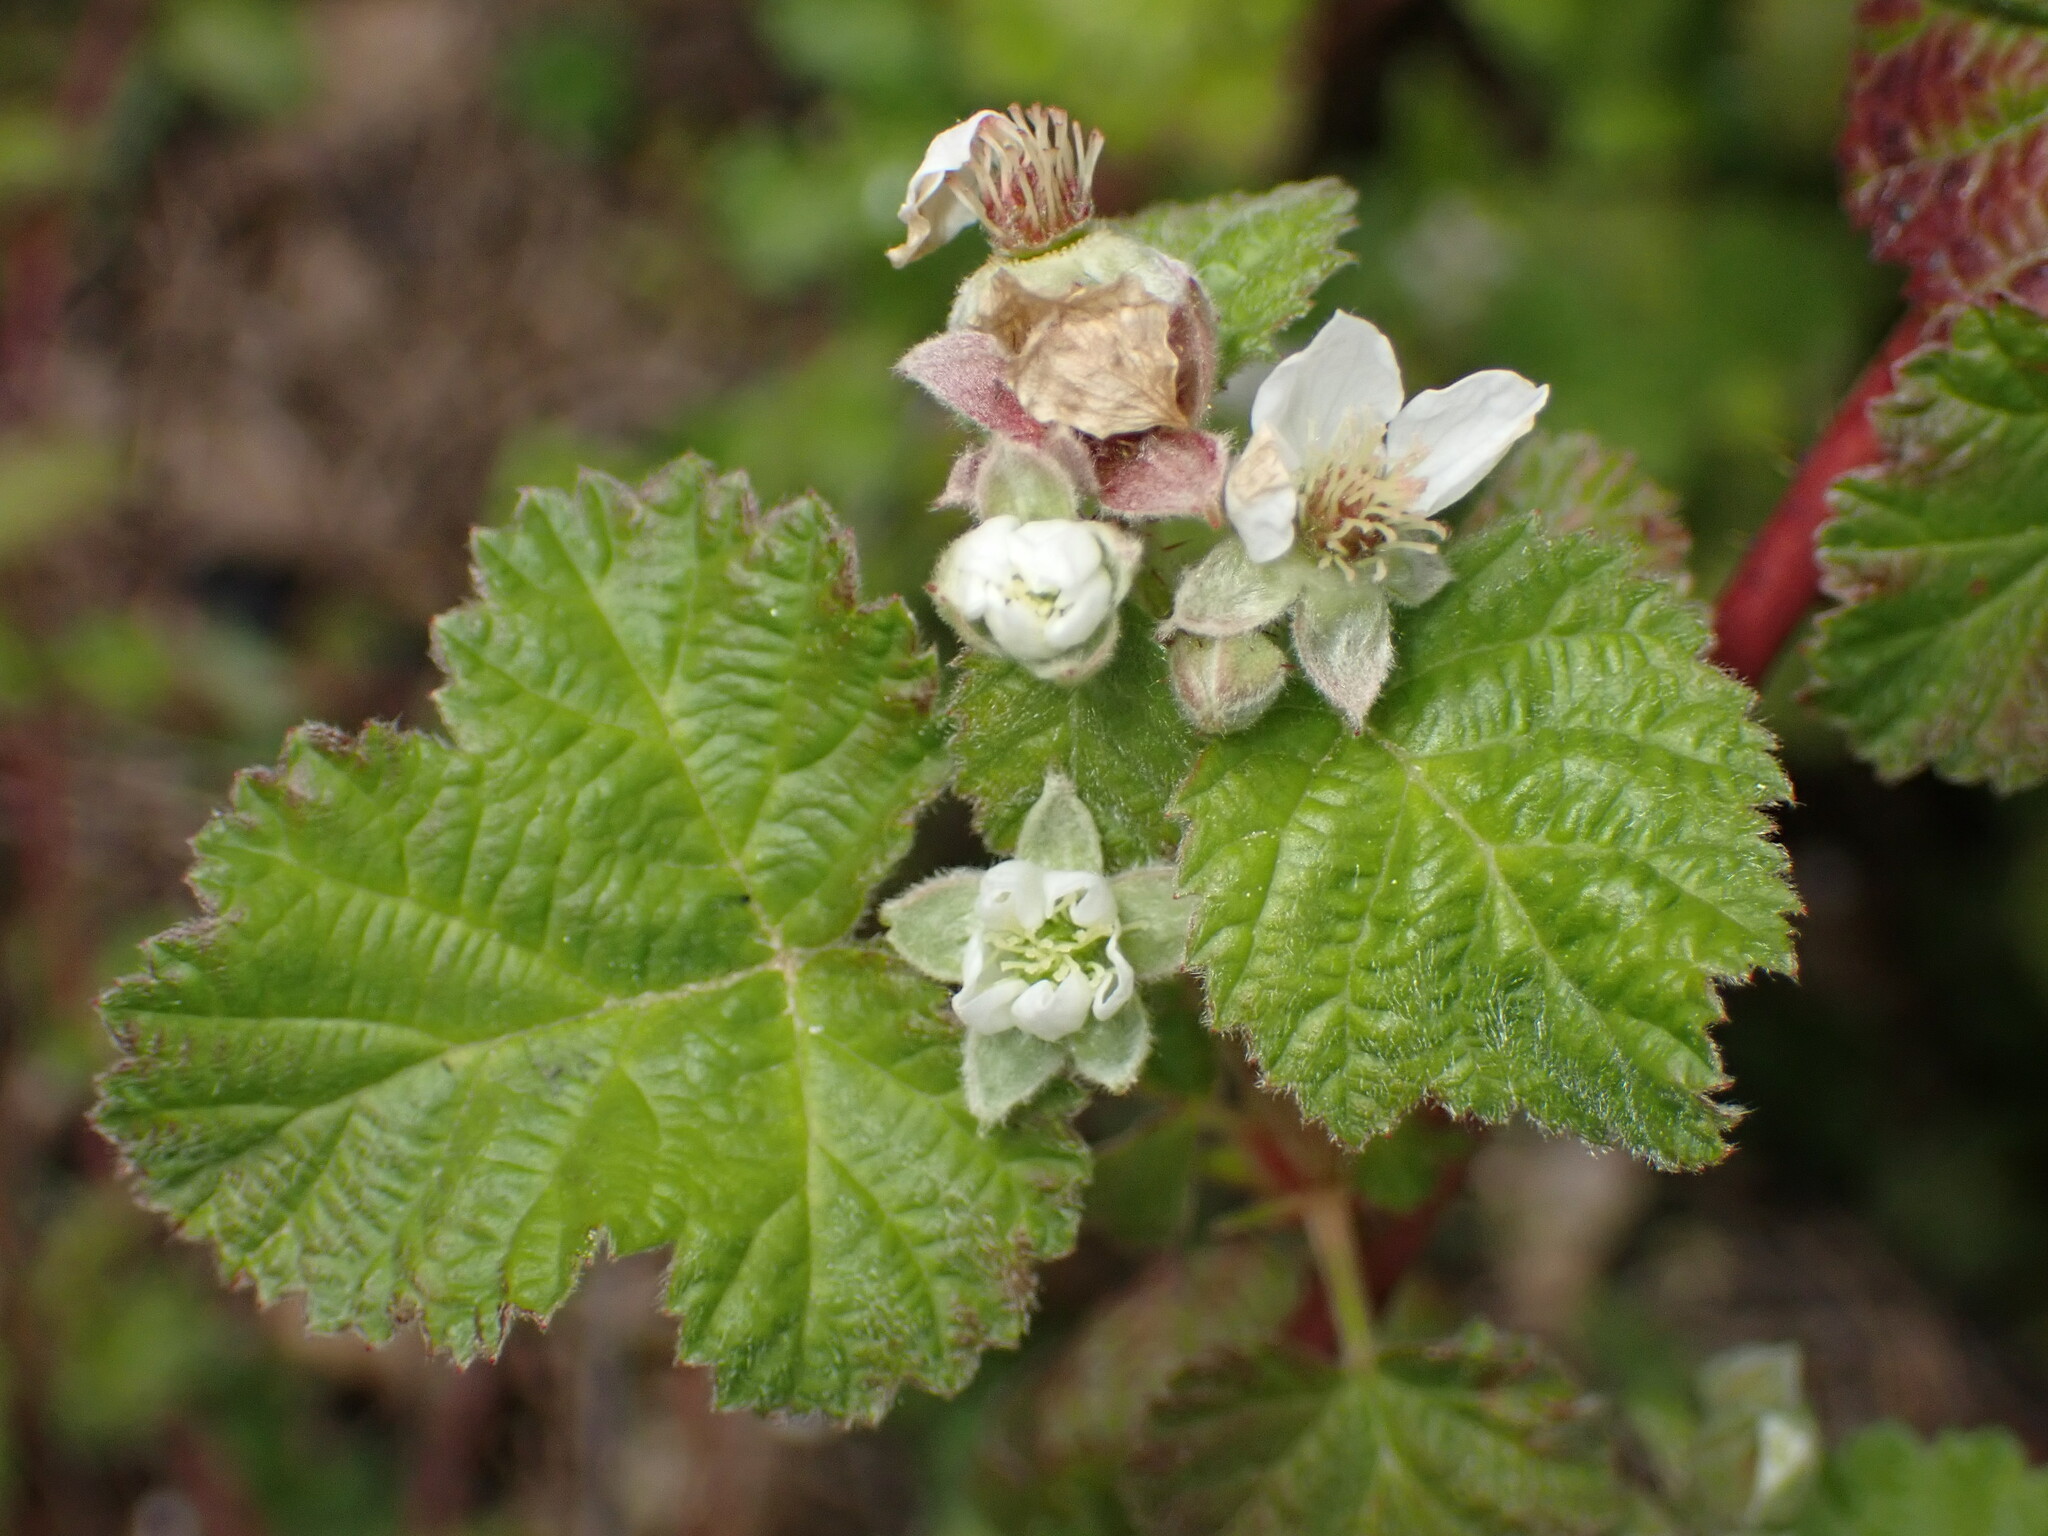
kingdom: Plantae
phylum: Tracheophyta
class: Magnoliopsida
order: Rosales
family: Rosaceae
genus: Rubus
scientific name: Rubus ursinus
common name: Pacific blackberry
